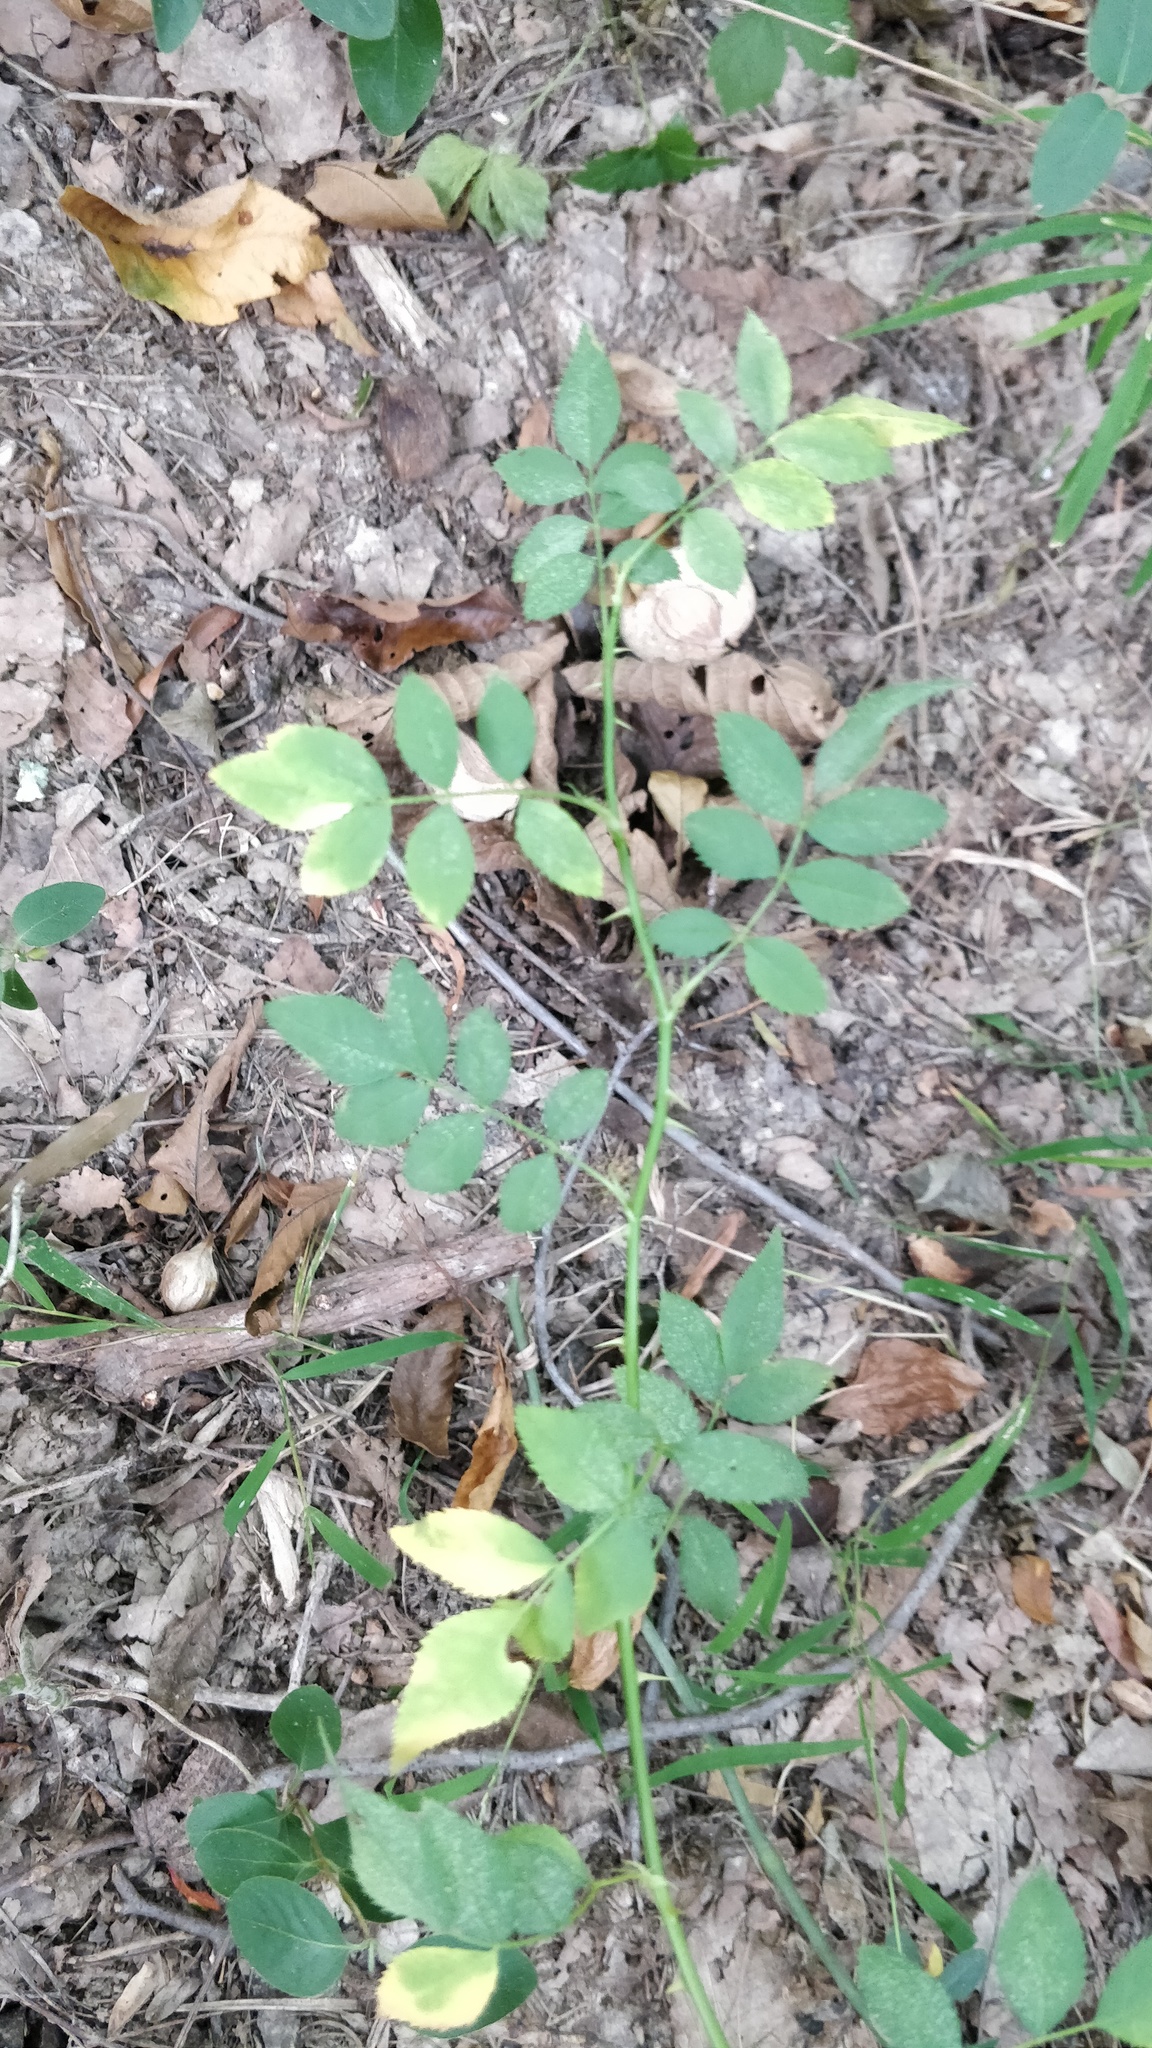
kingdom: Plantae
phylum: Tracheophyta
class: Magnoliopsida
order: Rosales
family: Rosaceae
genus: Rosa
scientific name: Rosa multiflora
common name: Multiflora rose
